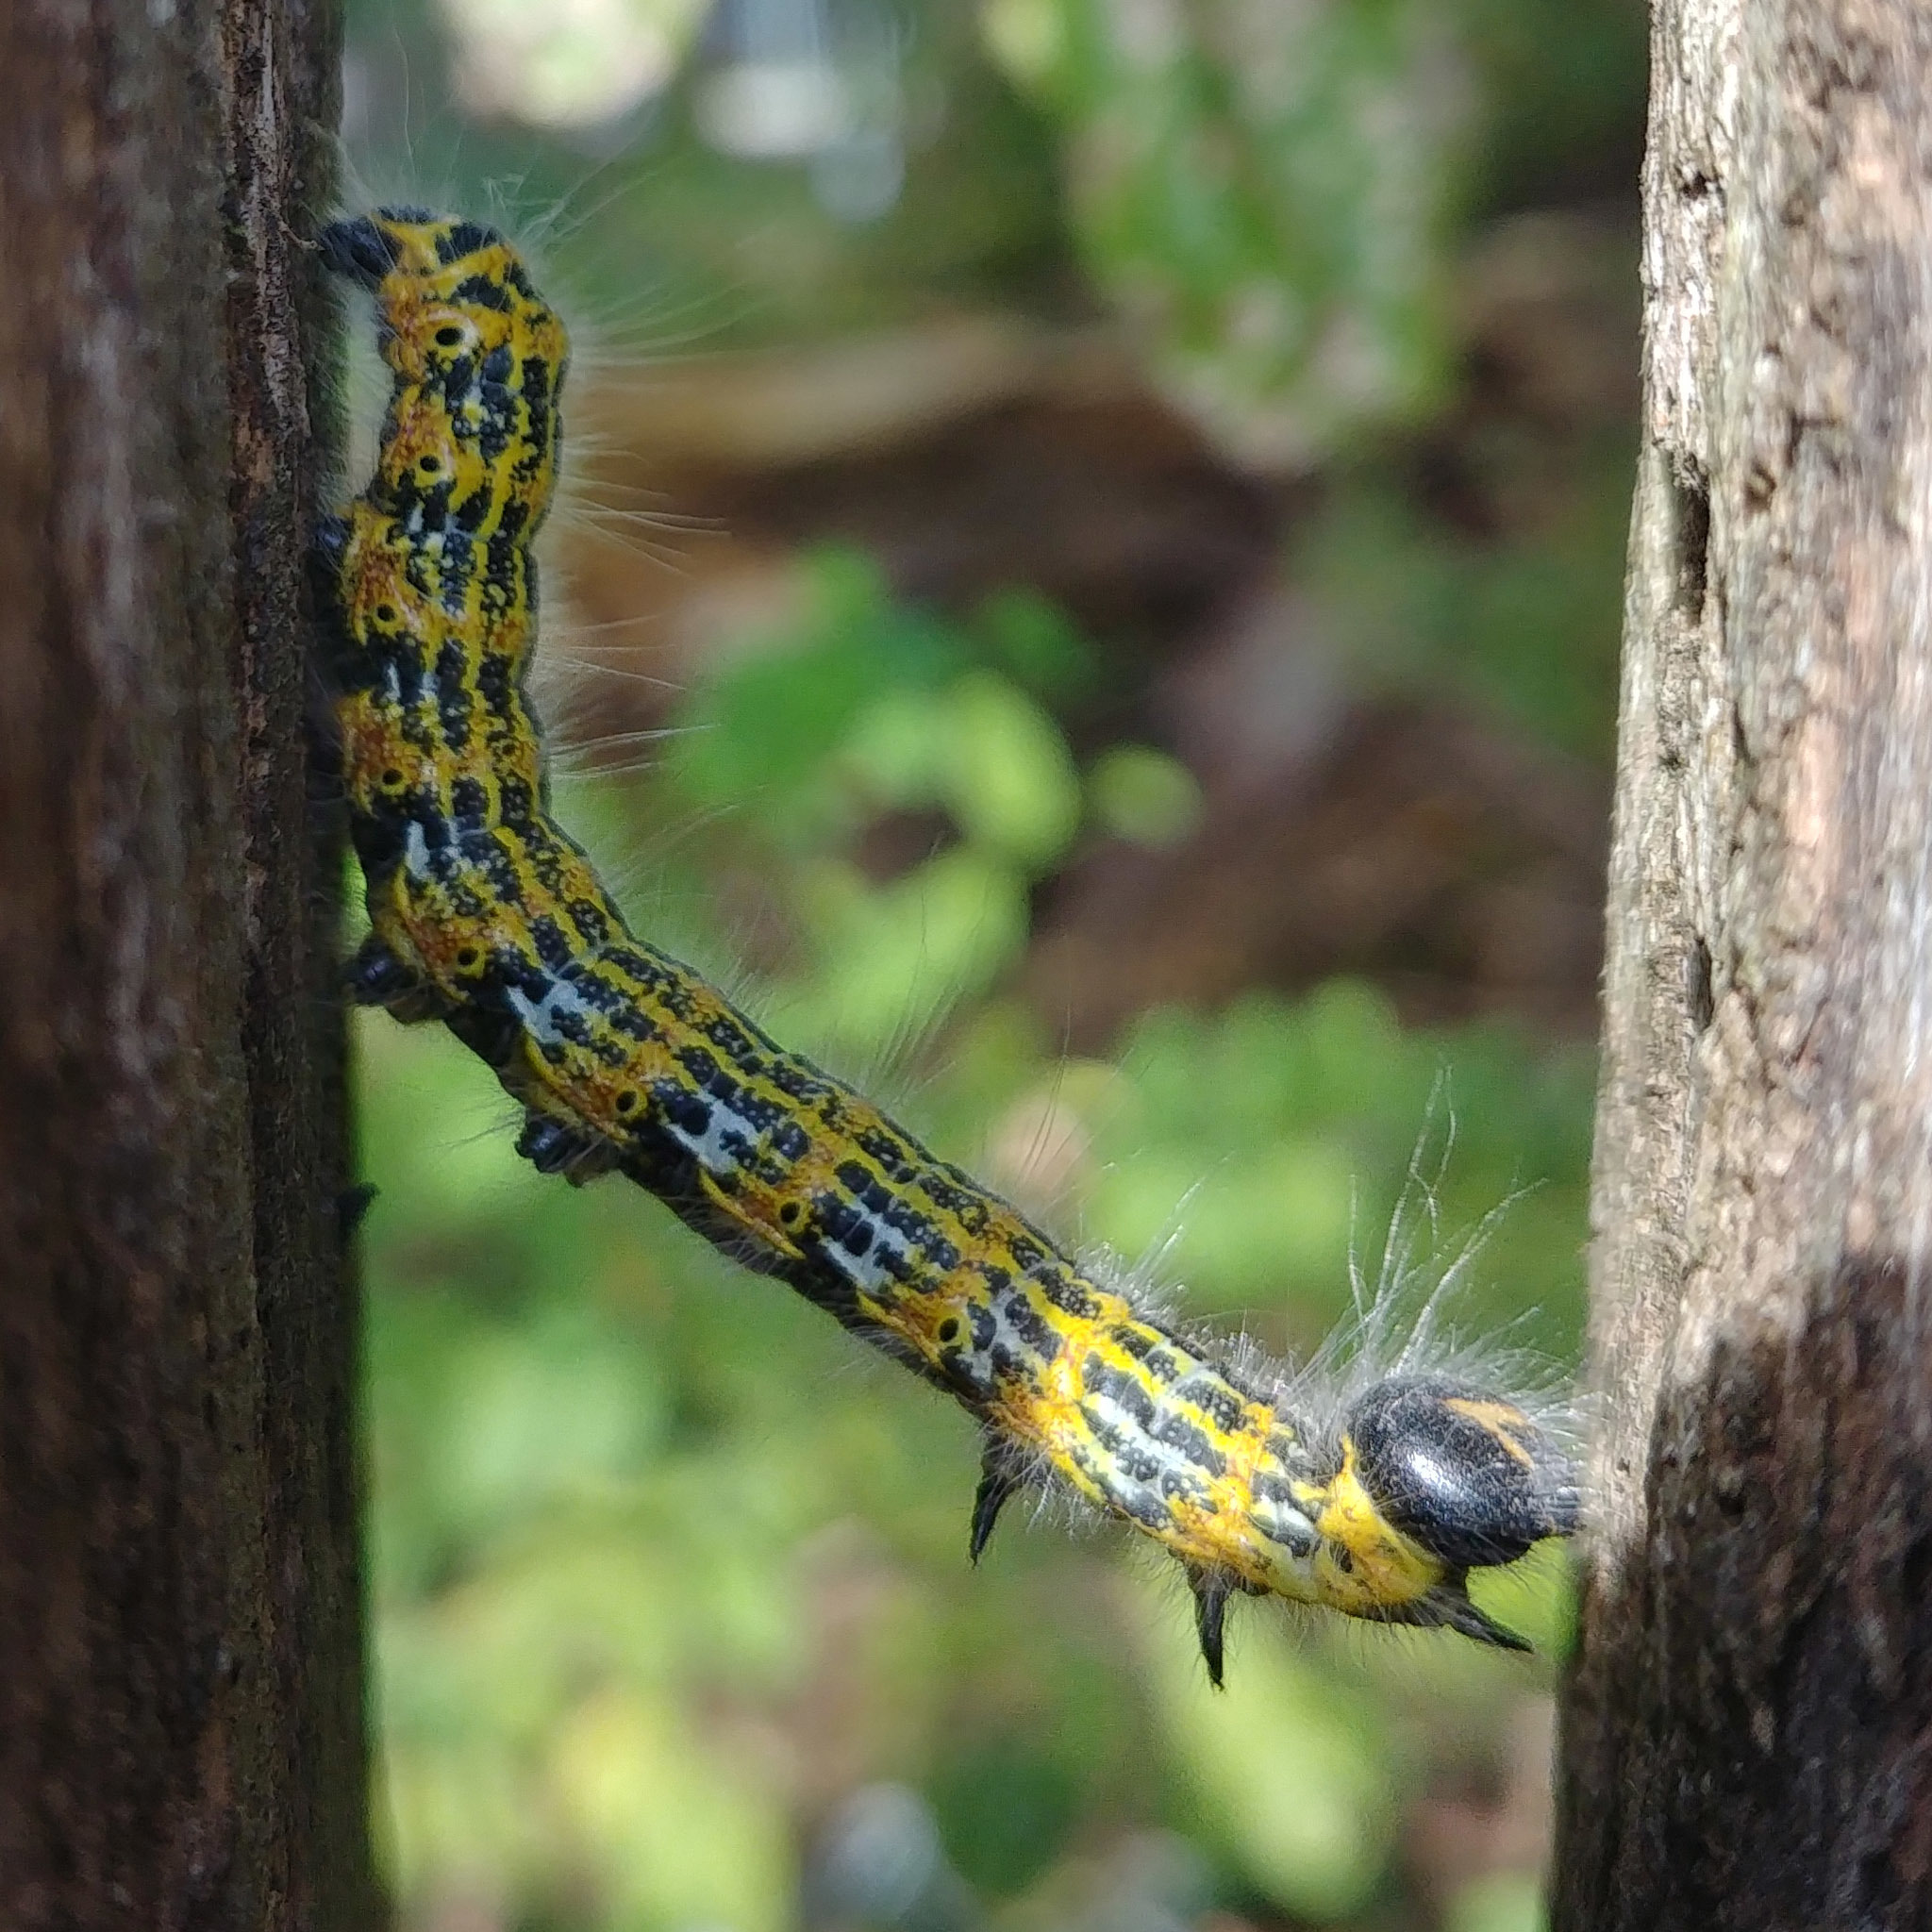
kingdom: Animalia
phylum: Arthropoda
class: Insecta
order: Lepidoptera
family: Notodontidae
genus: Phalera
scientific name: Phalera bucephala
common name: Buff-tip
